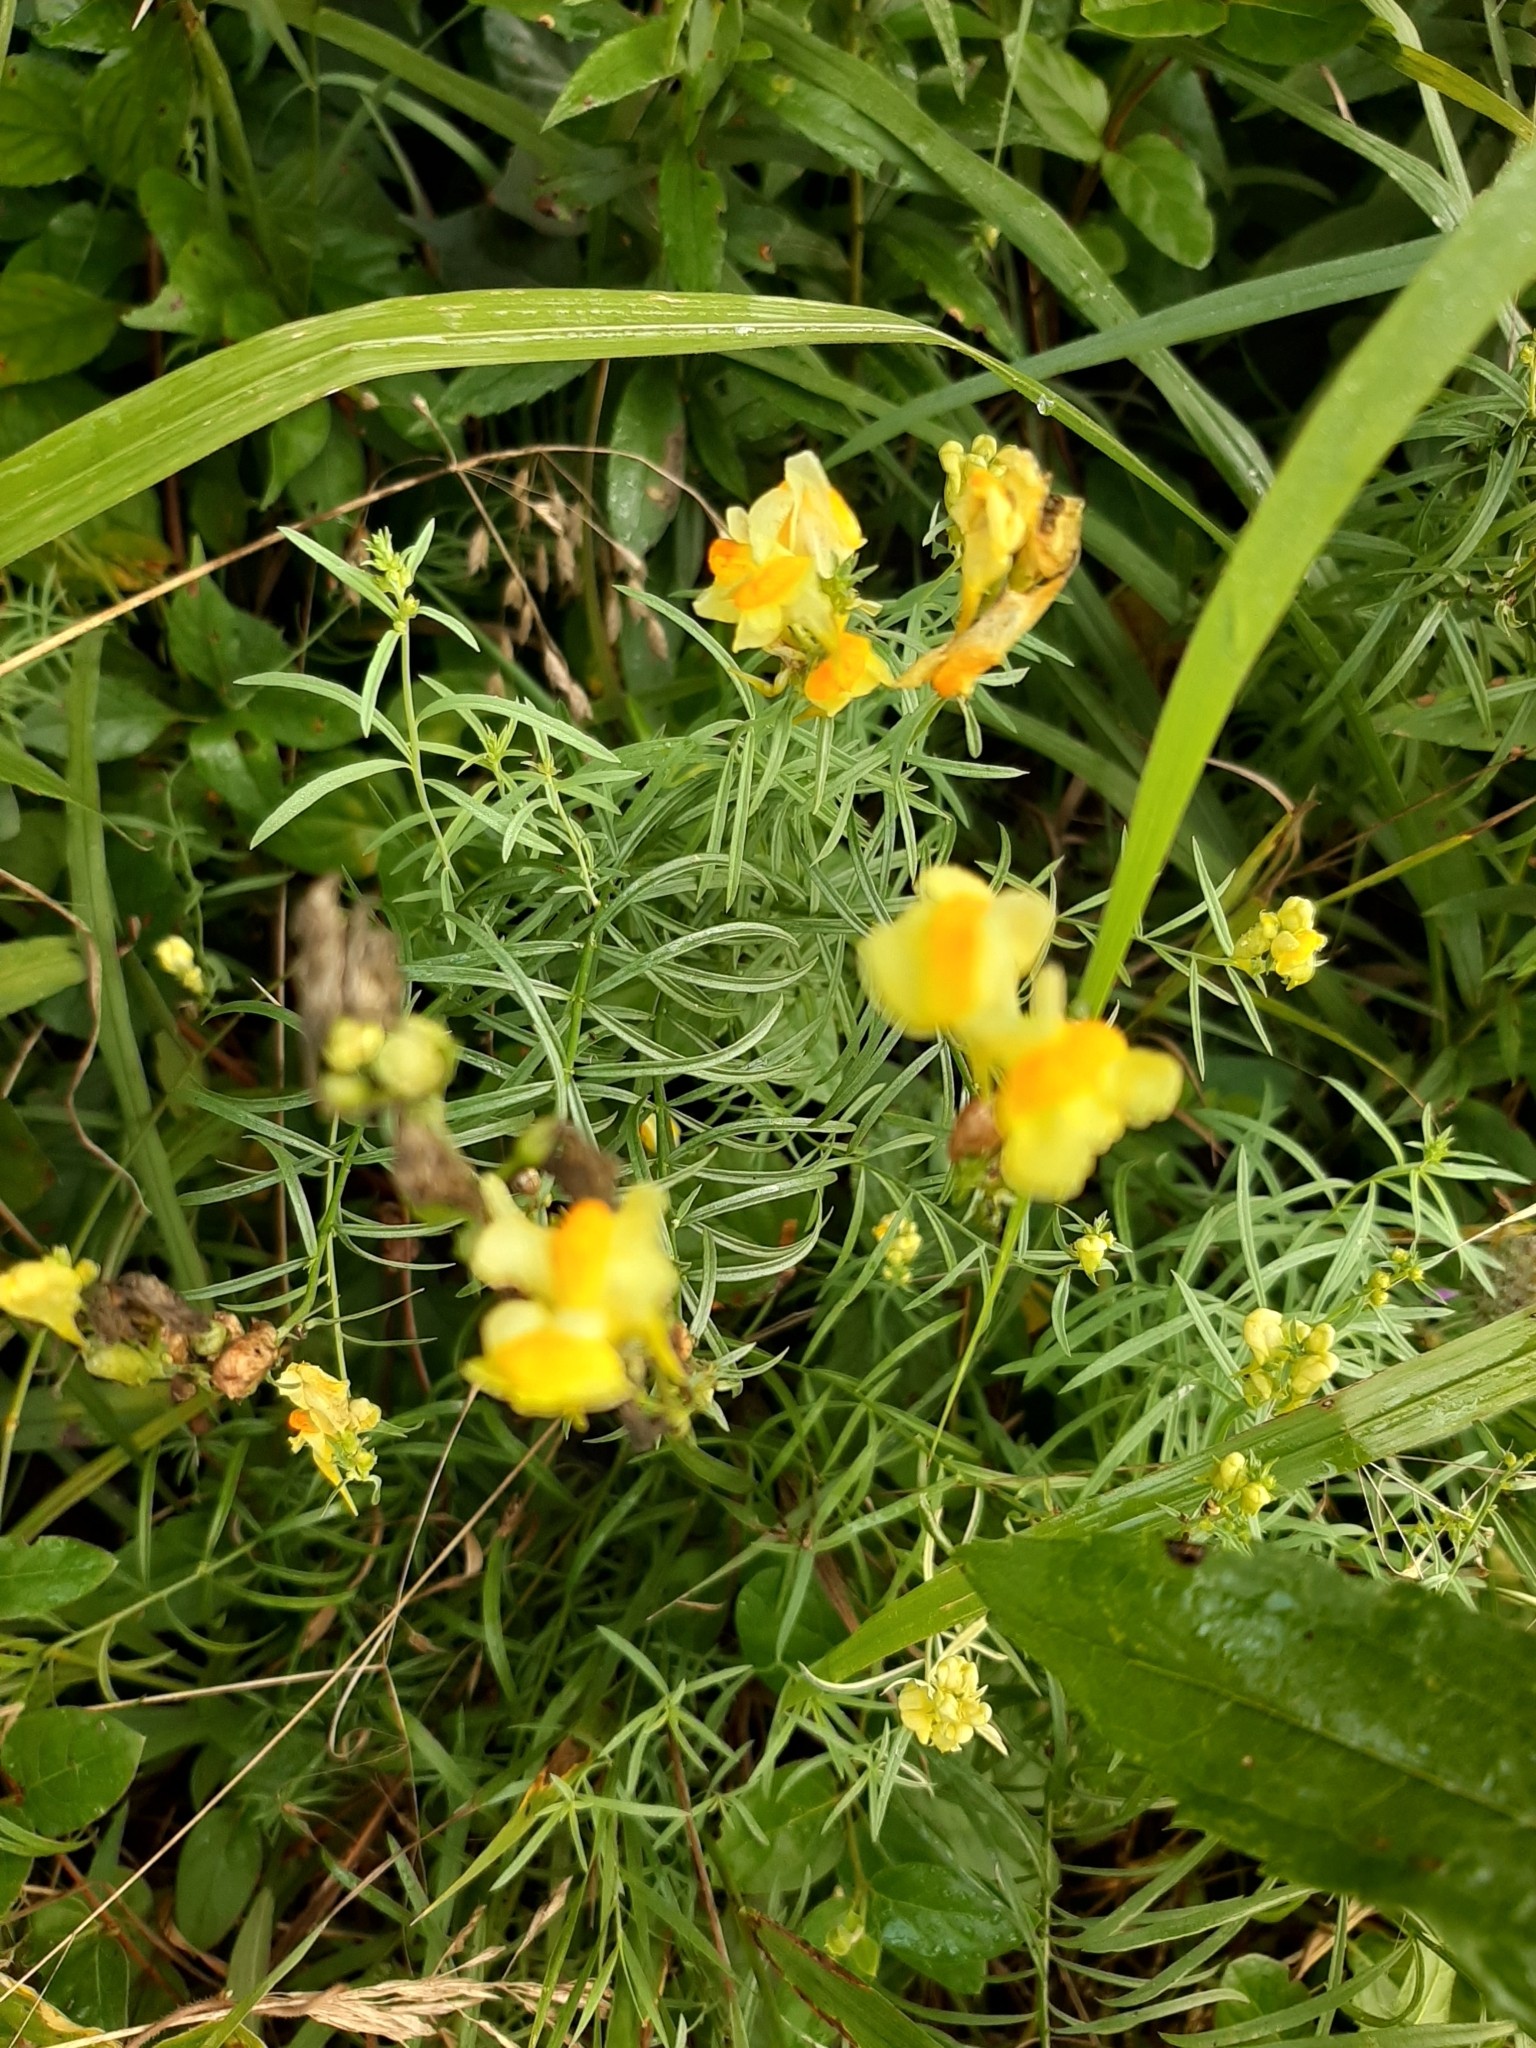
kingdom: Plantae
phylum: Tracheophyta
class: Magnoliopsida
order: Lamiales
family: Plantaginaceae
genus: Linaria
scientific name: Linaria vulgaris
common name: Butter and eggs
